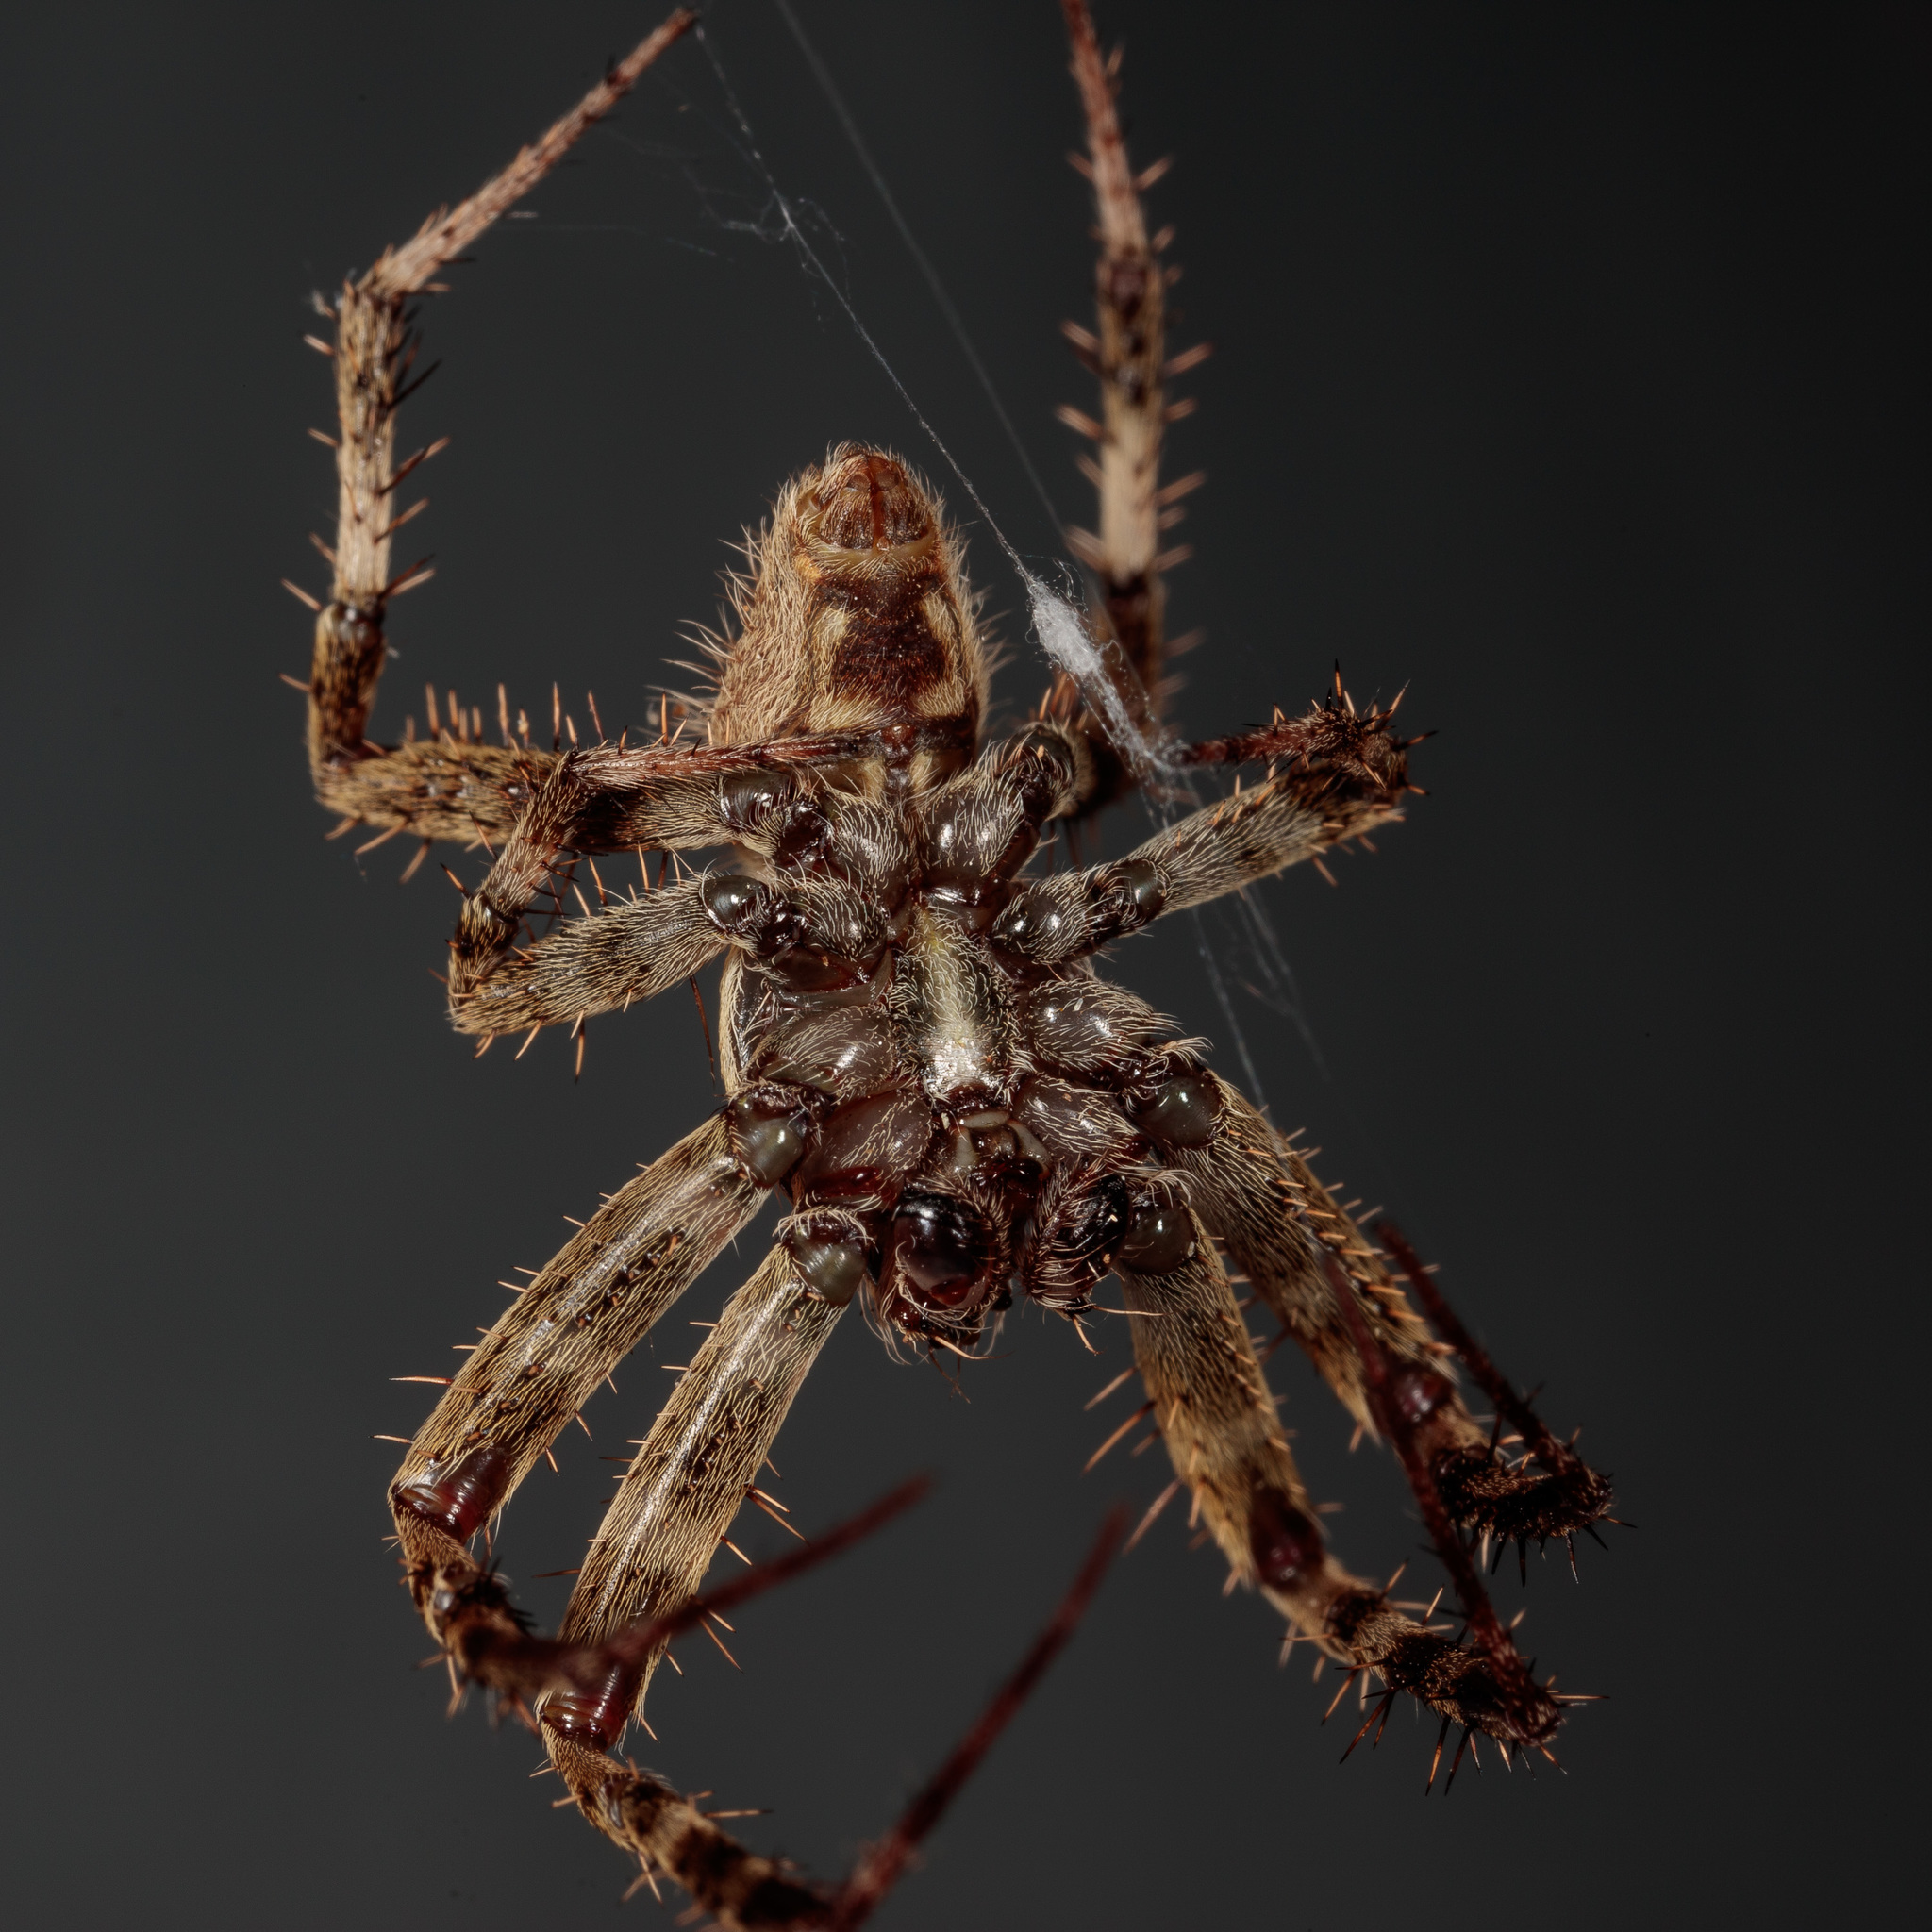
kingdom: Animalia
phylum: Arthropoda
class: Arachnida
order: Araneae
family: Araneidae
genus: Neoscona
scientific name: Neoscona crucifera
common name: Spotted orbweaver
